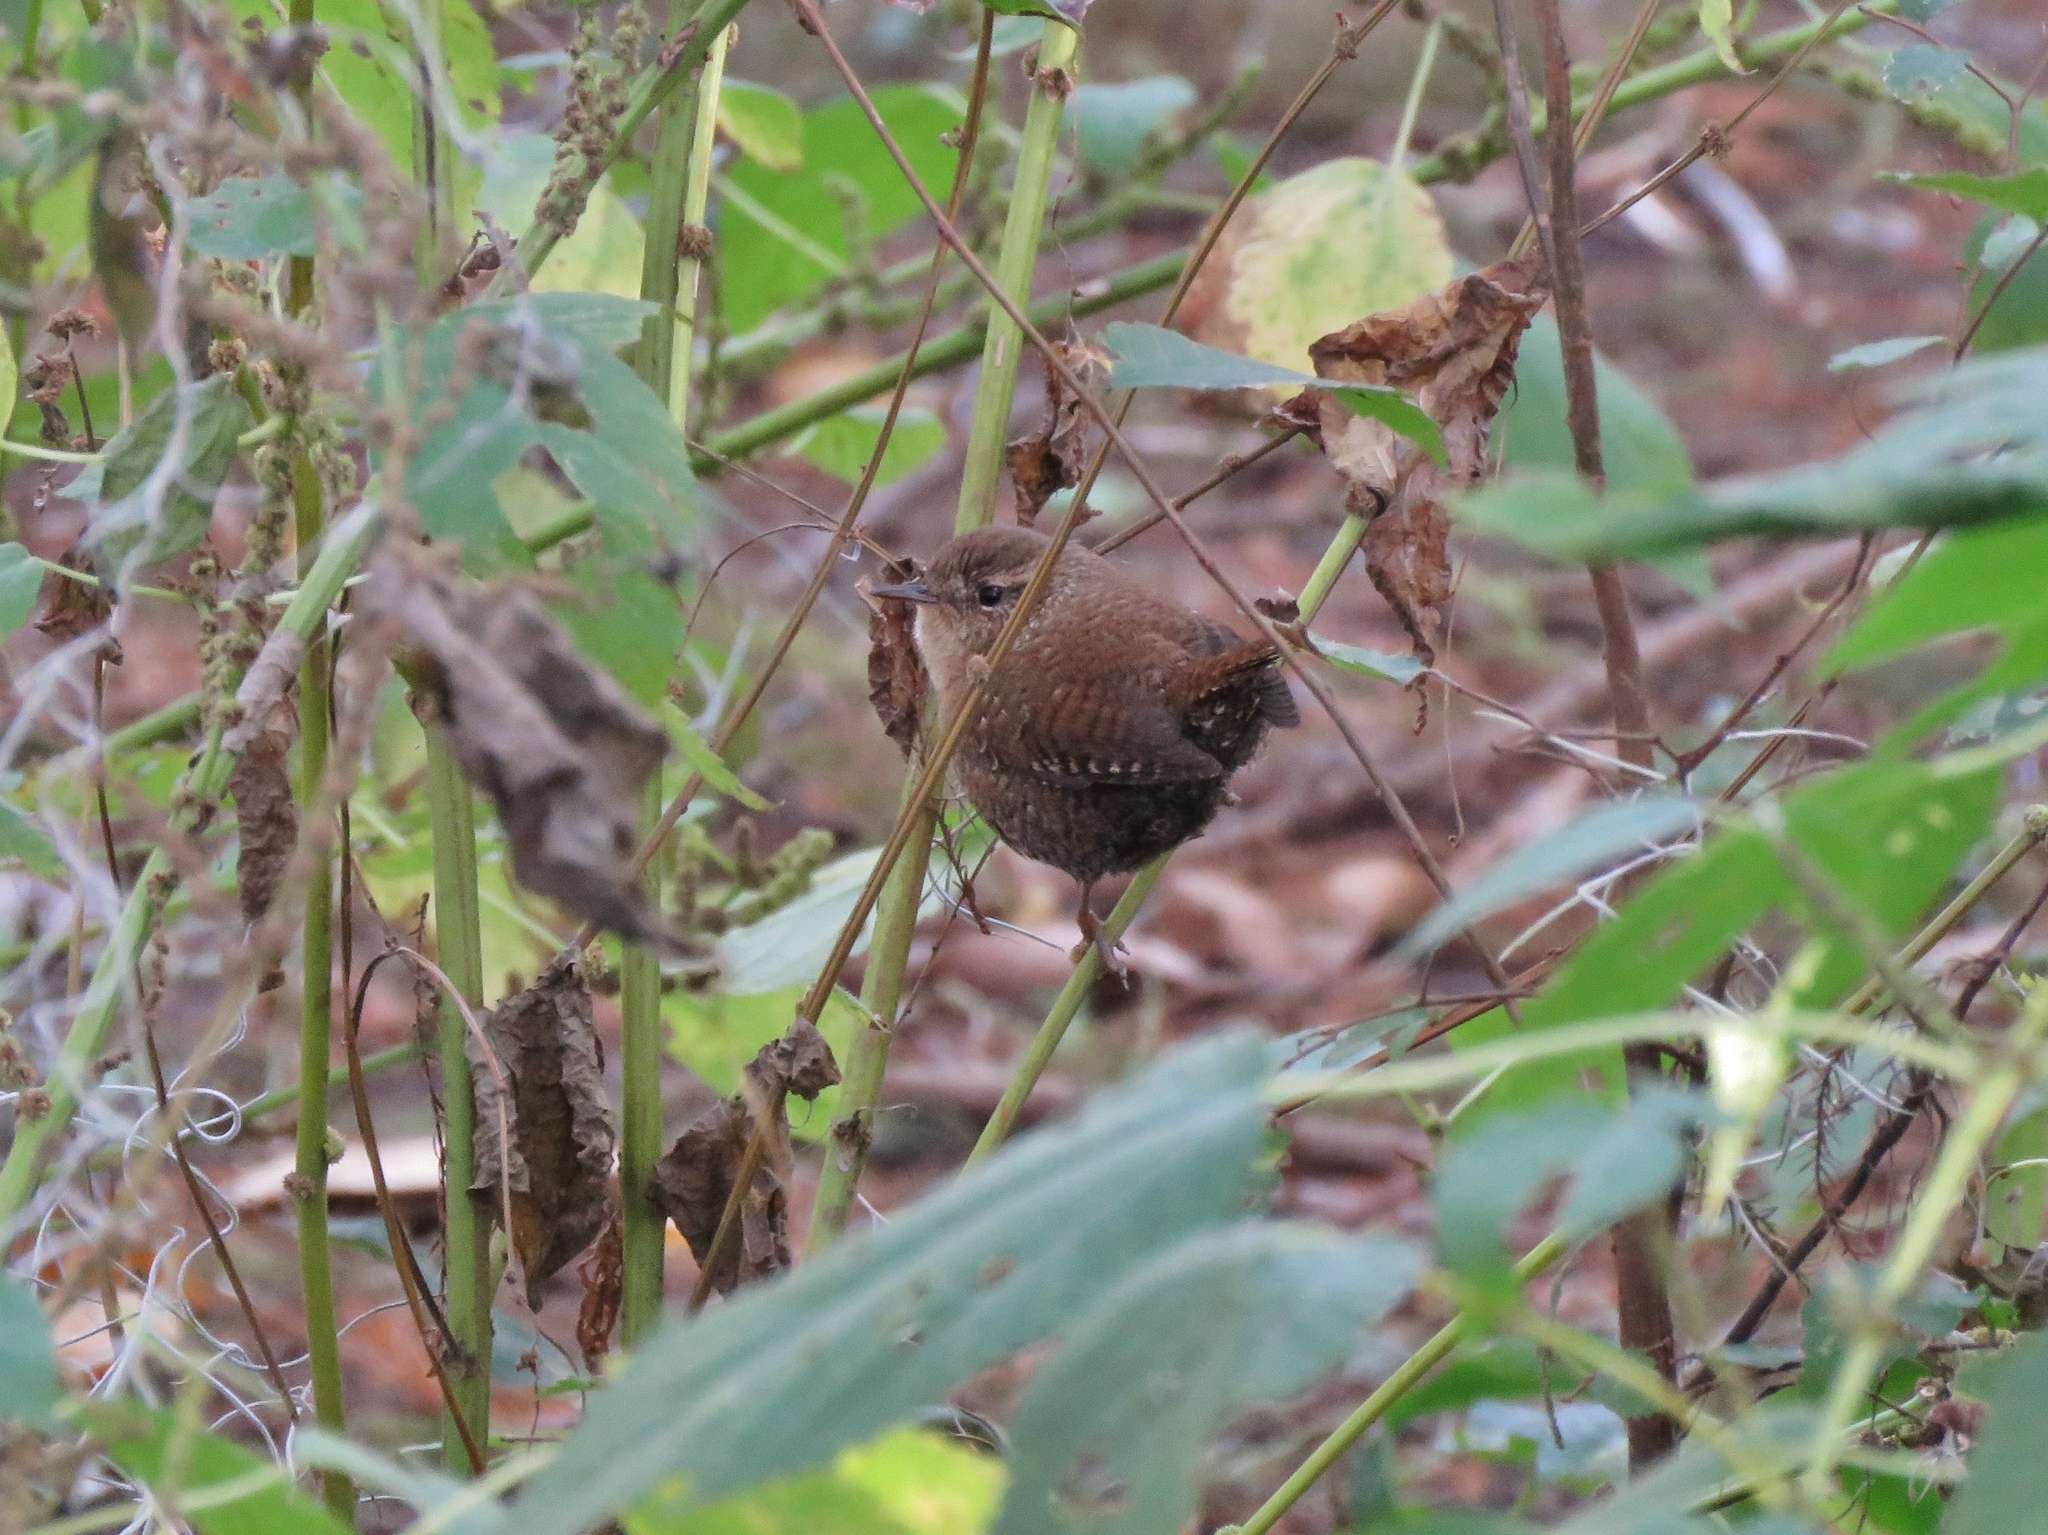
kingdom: Animalia
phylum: Chordata
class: Aves
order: Passeriformes
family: Troglodytidae
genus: Troglodytes
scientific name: Troglodytes hiemalis
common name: Winter wren
